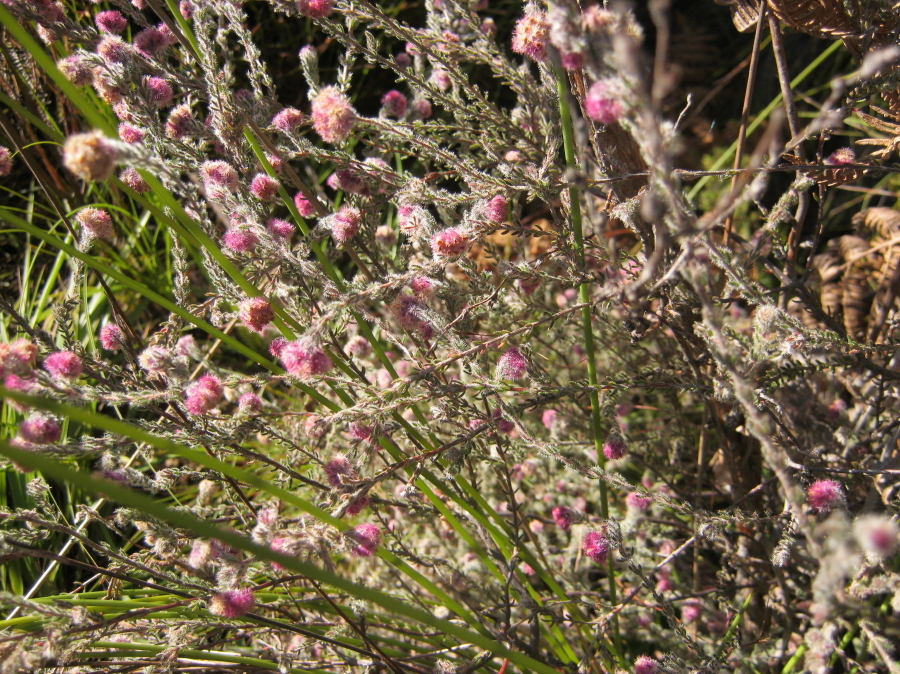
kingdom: Plantae
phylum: Tracheophyta
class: Magnoliopsida
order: Ericales
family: Ericaceae
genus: Erica
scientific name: Erica solandra
